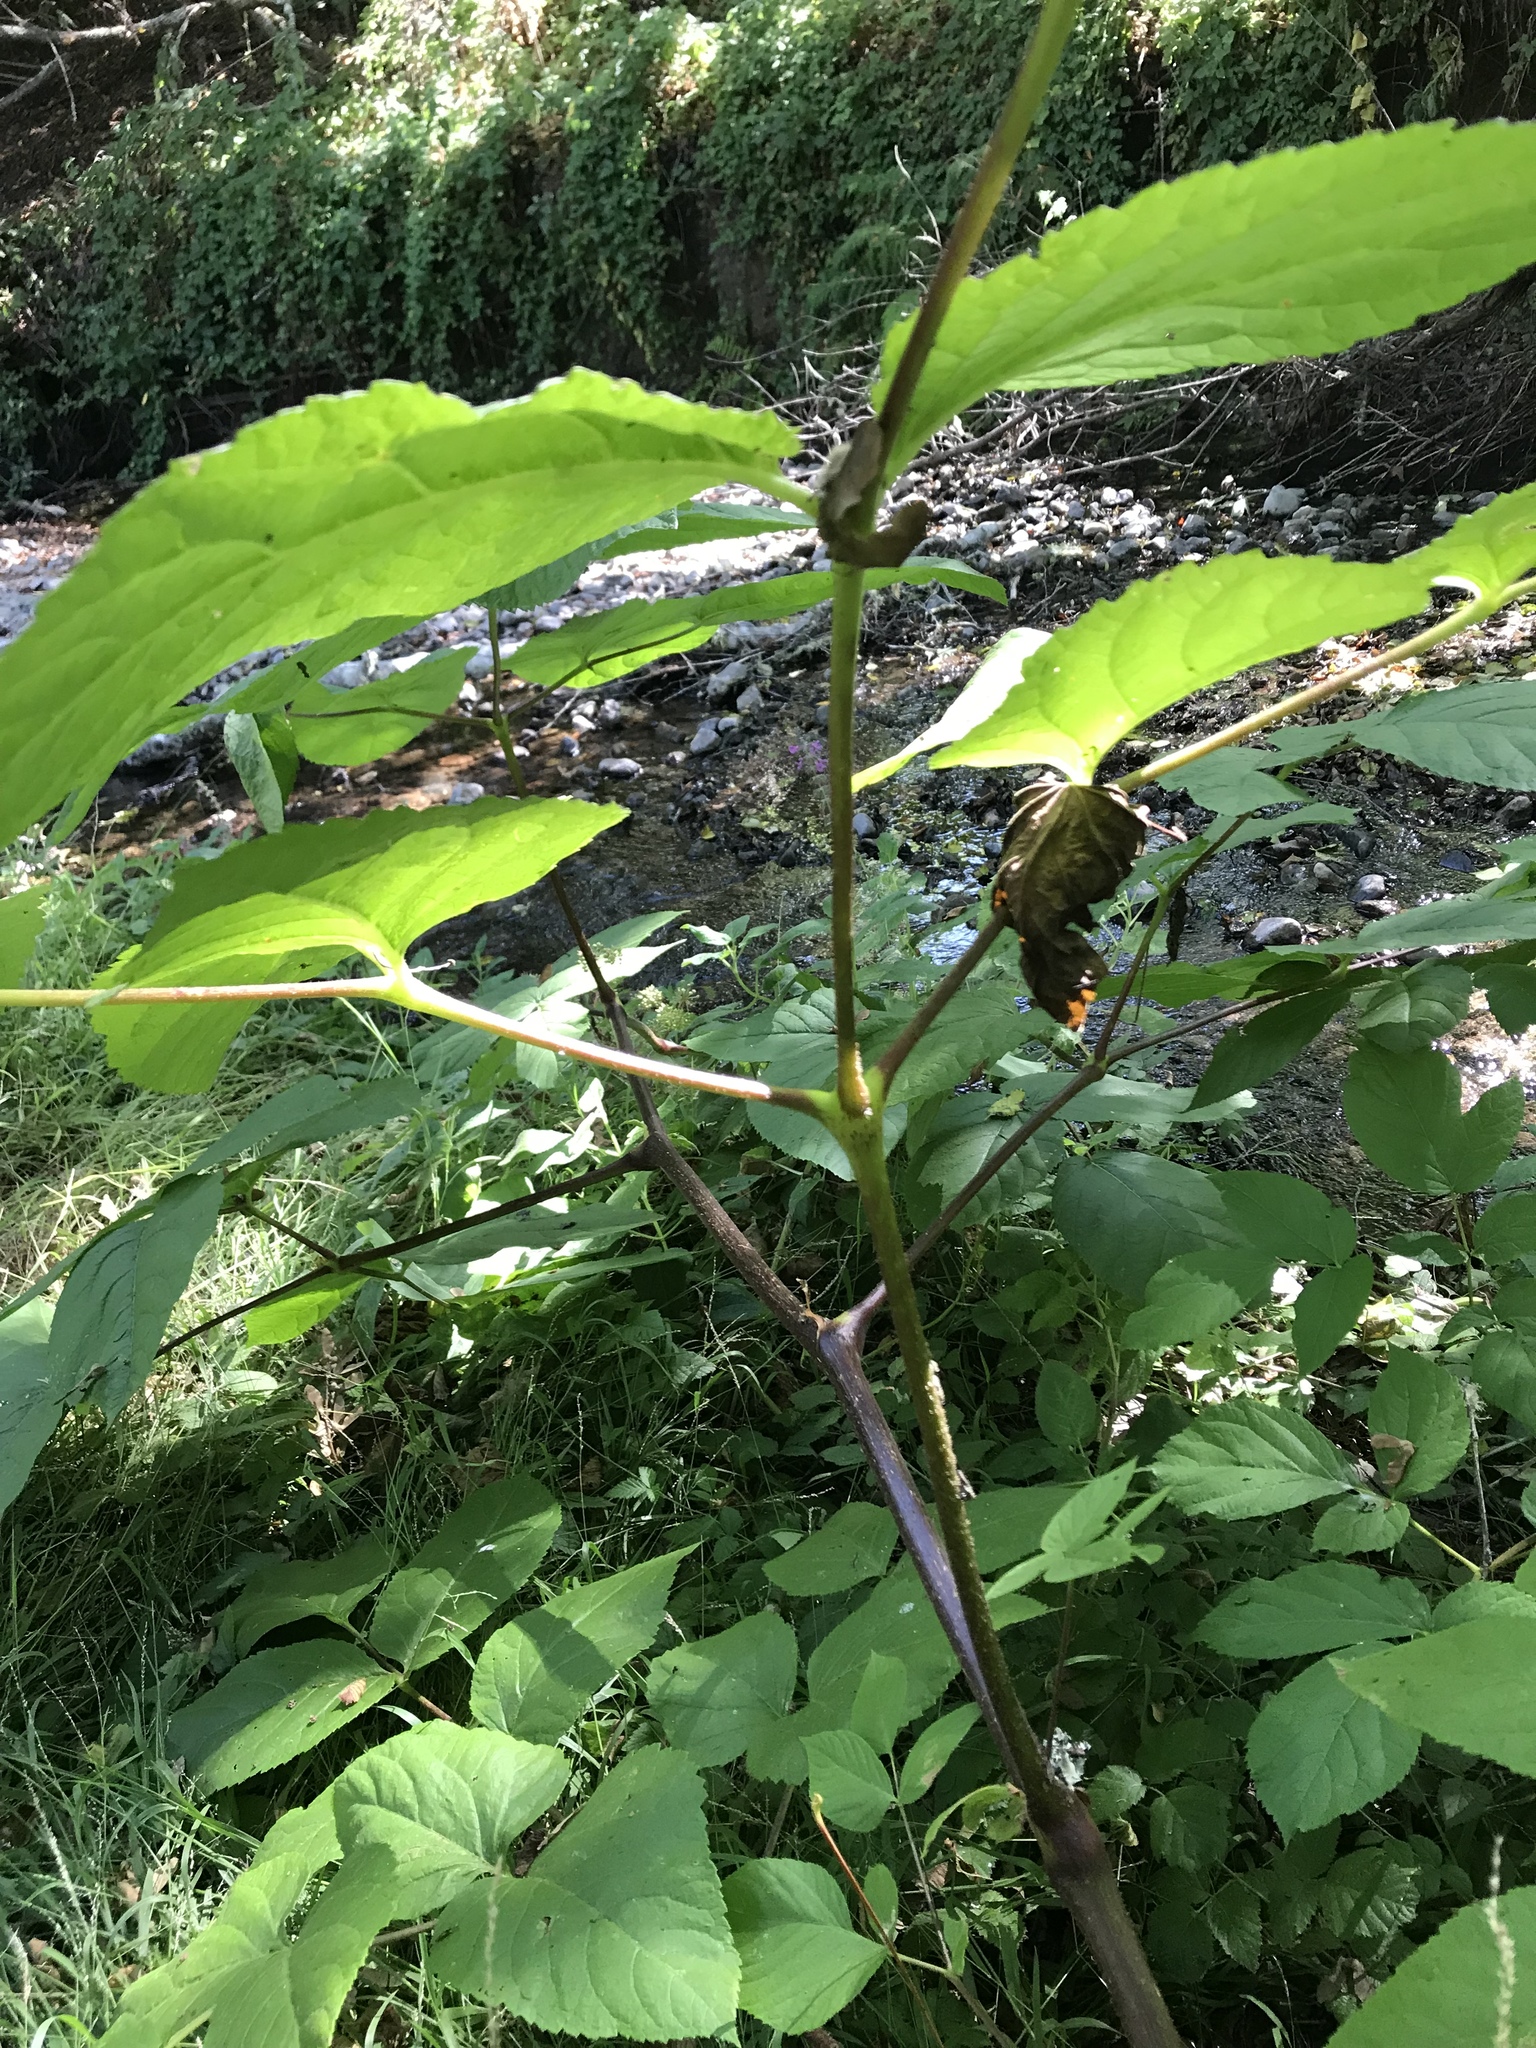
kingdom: Plantae
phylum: Tracheophyta
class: Magnoliopsida
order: Apiales
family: Araliaceae
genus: Aralia
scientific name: Aralia californica
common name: California-ginseng
